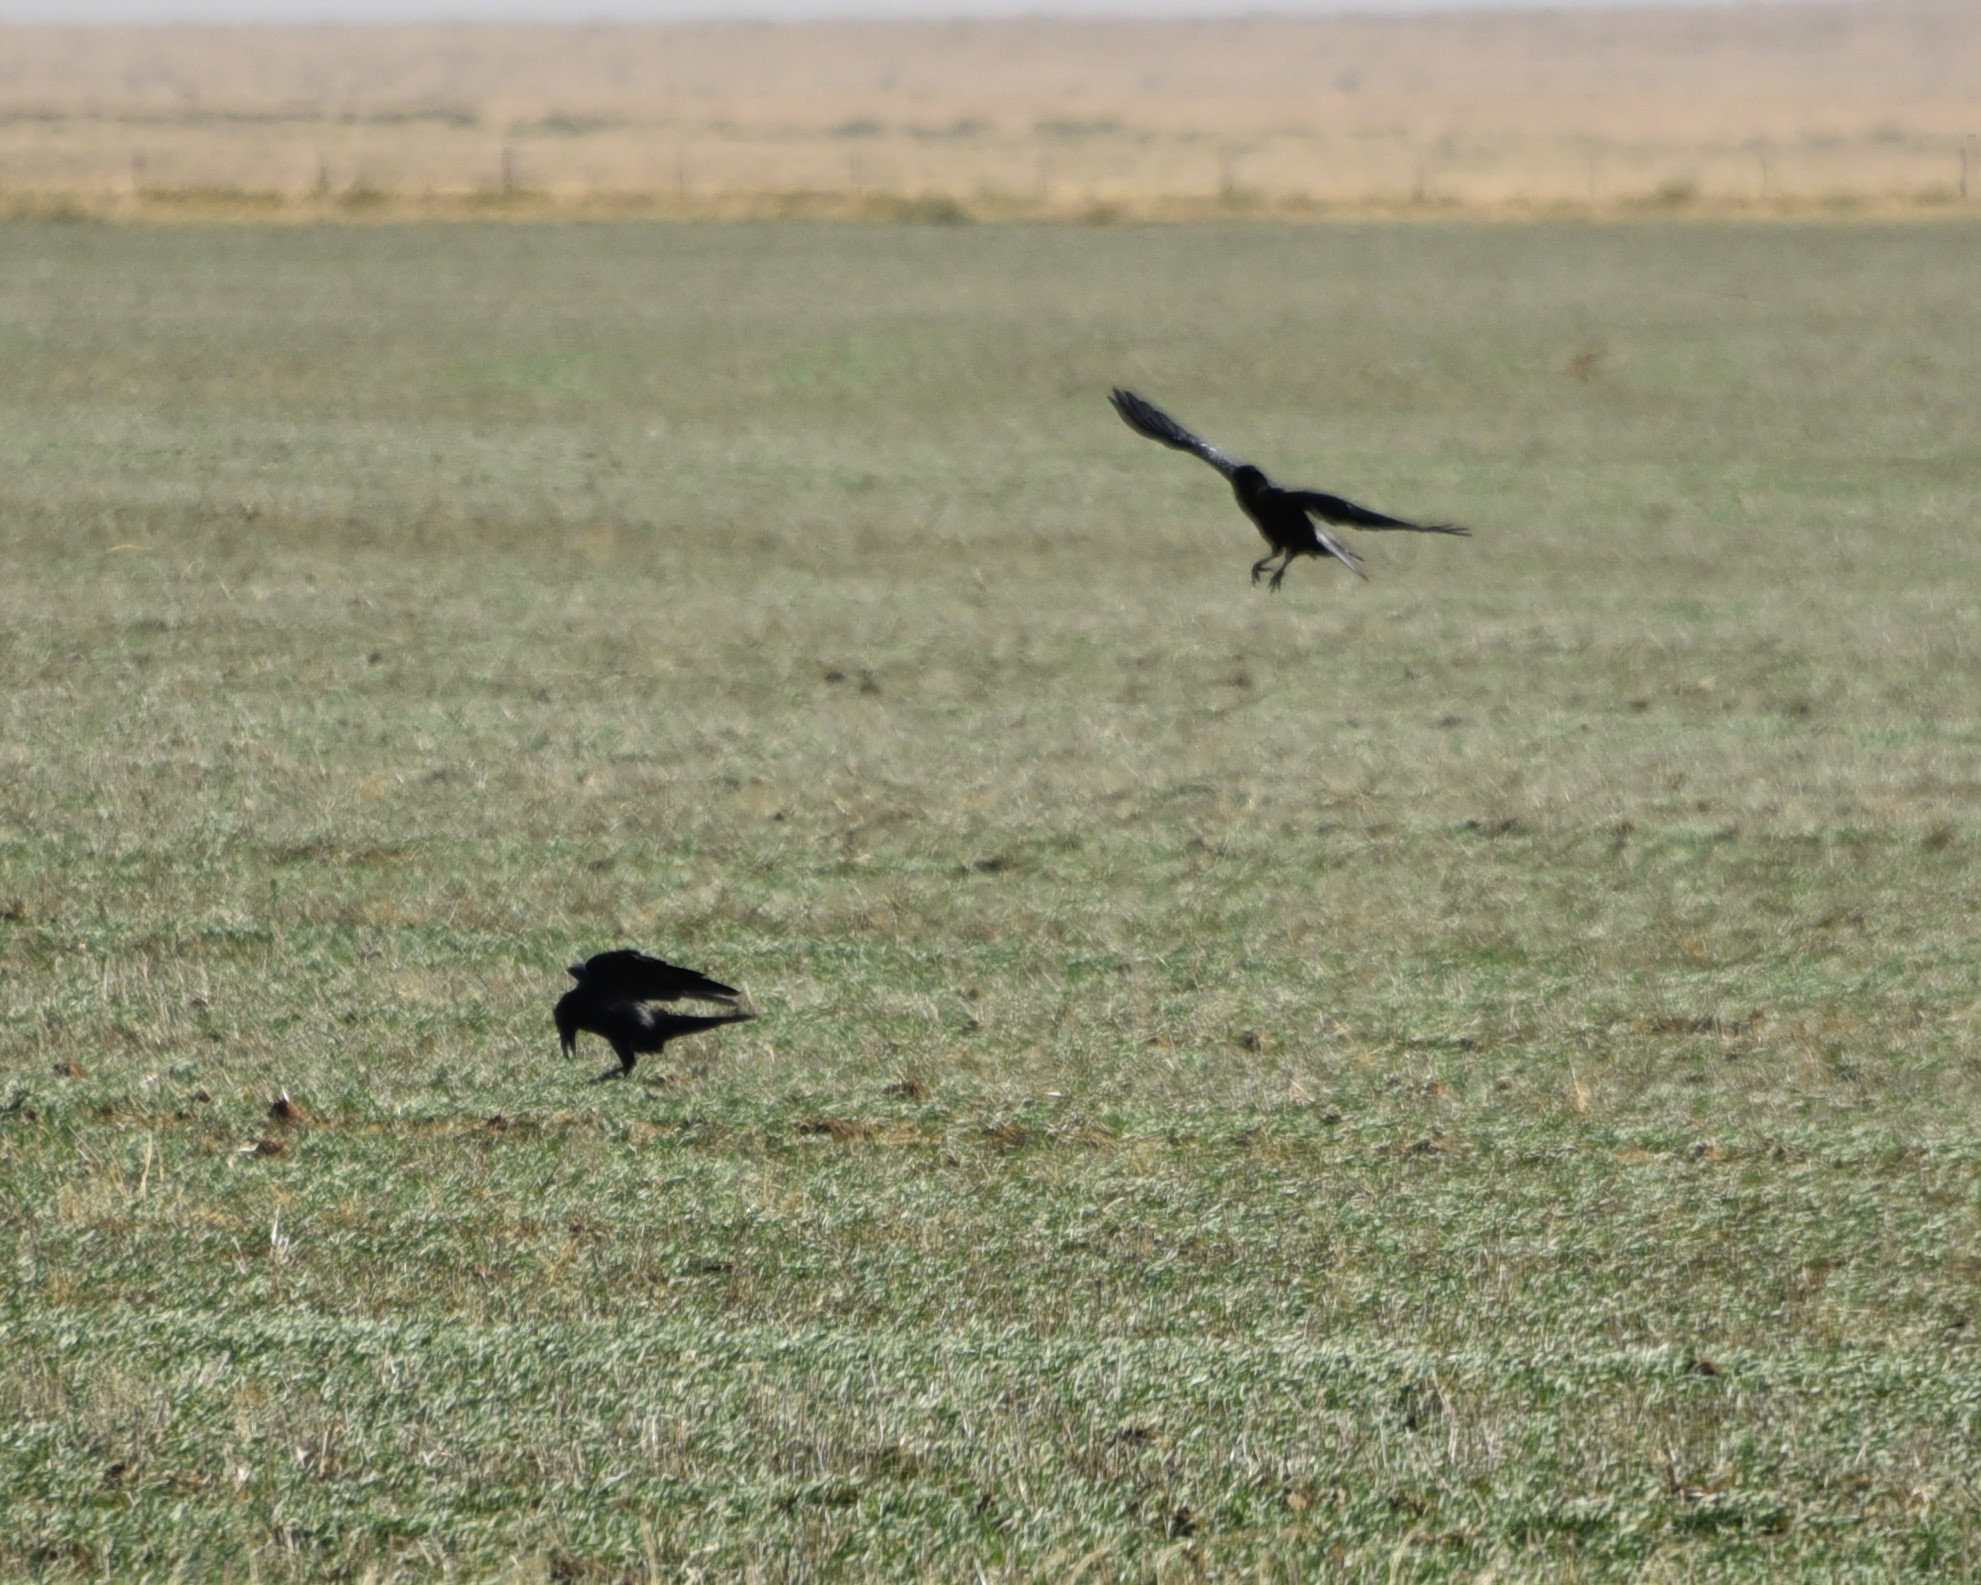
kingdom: Animalia
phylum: Chordata
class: Aves
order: Passeriformes
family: Corvidae
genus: Corvus
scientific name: Corvus corax
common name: Common raven
